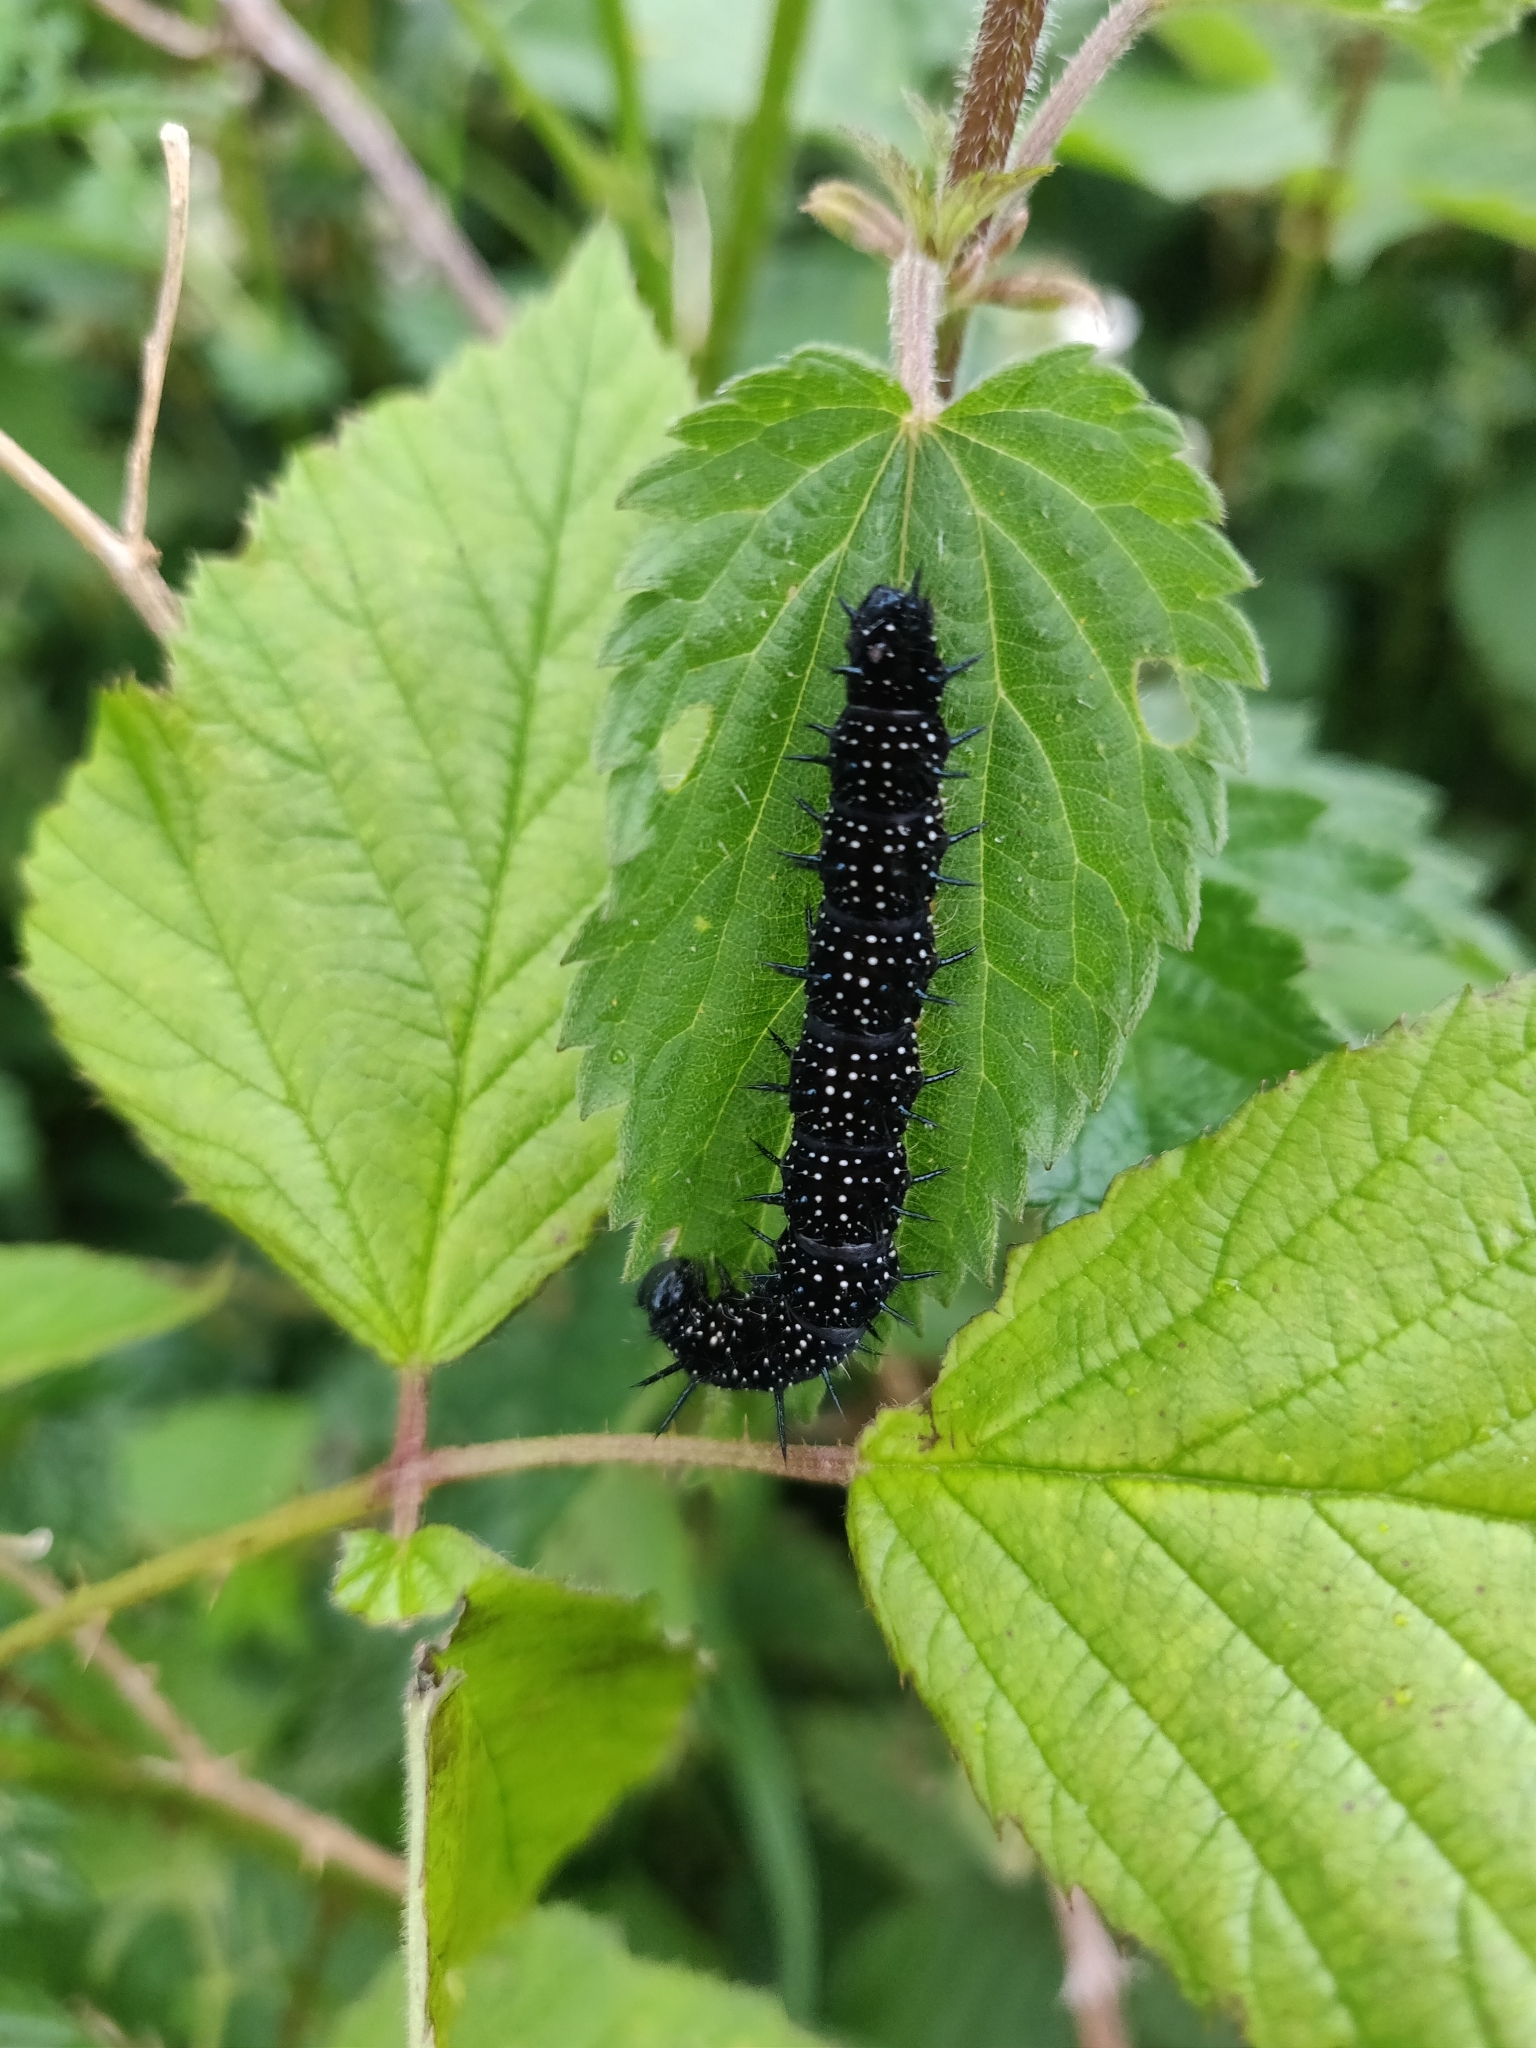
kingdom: Animalia
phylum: Arthropoda
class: Insecta
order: Lepidoptera
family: Nymphalidae
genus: Aglais
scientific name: Aglais io
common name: Peacock
